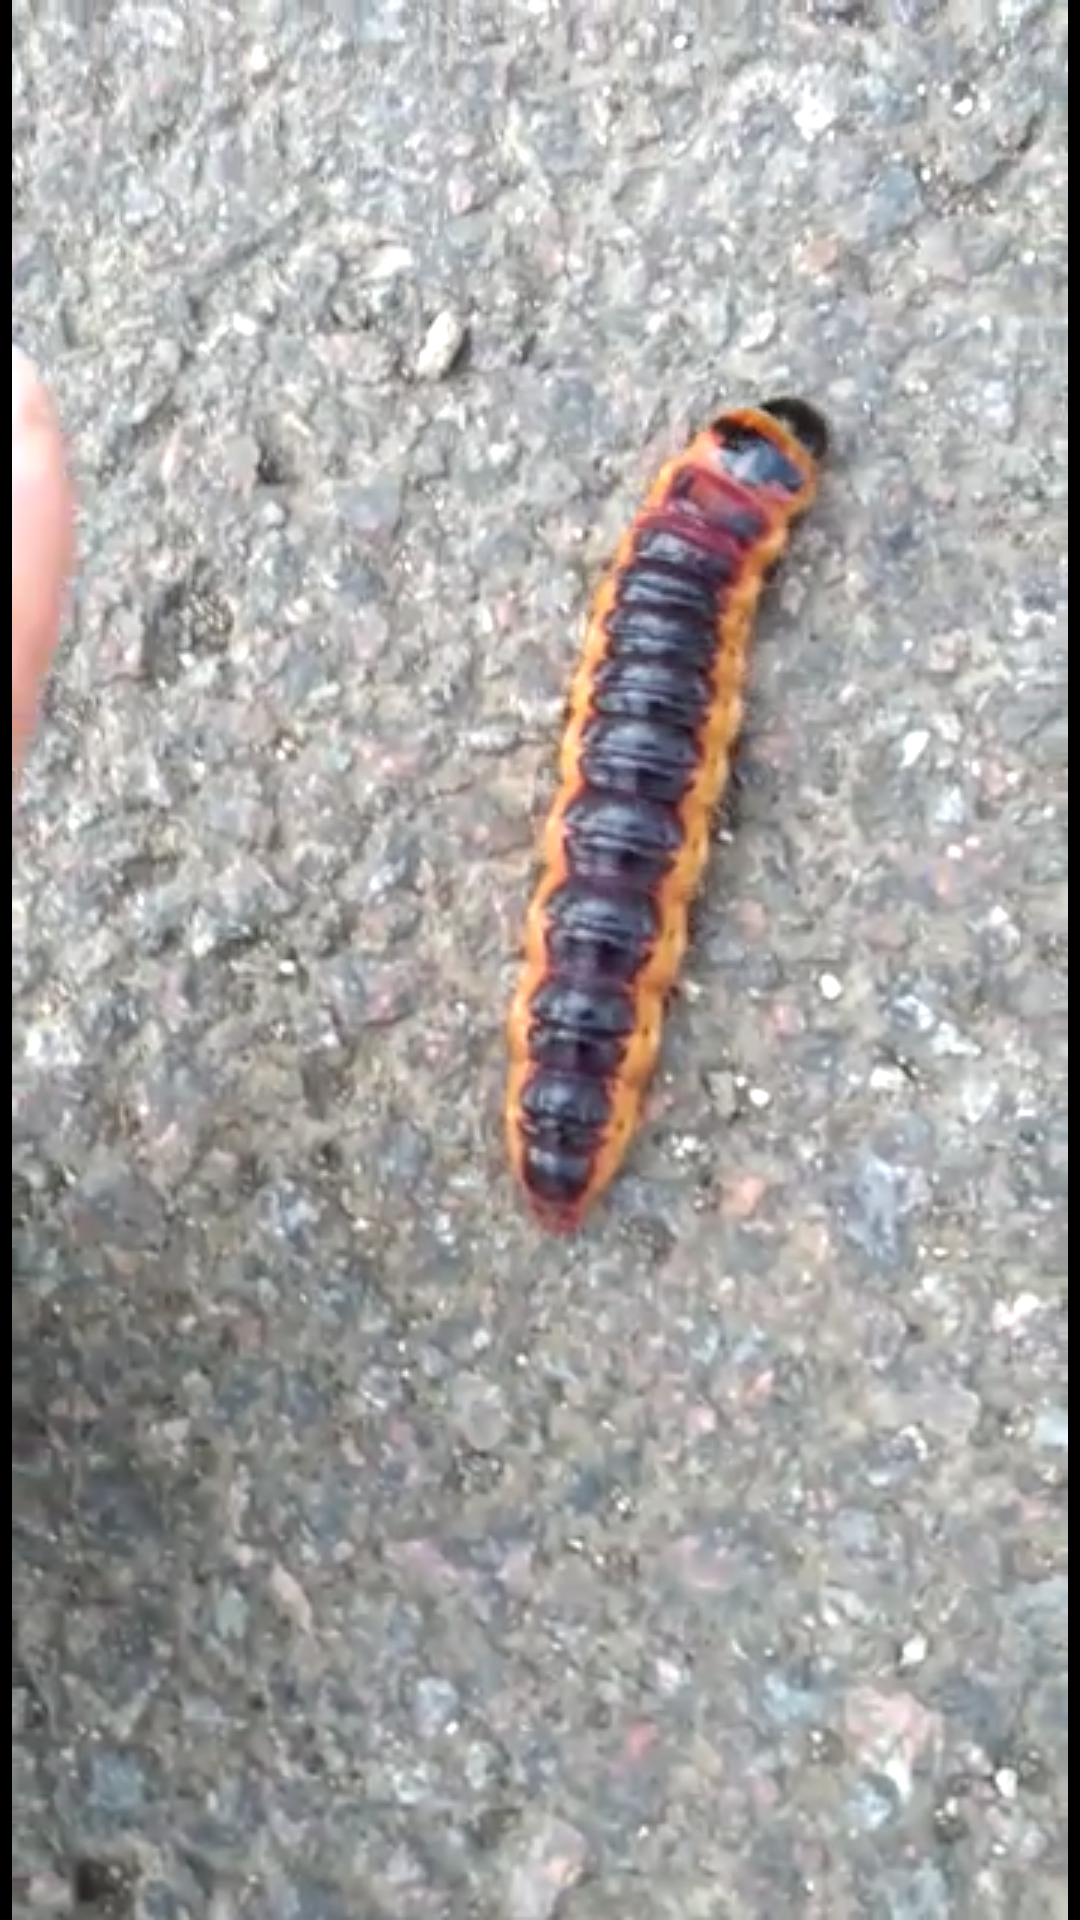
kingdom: Animalia
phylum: Arthropoda
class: Insecta
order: Lepidoptera
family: Cossidae
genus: Cossus
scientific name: Cossus cossus
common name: Goat moth
